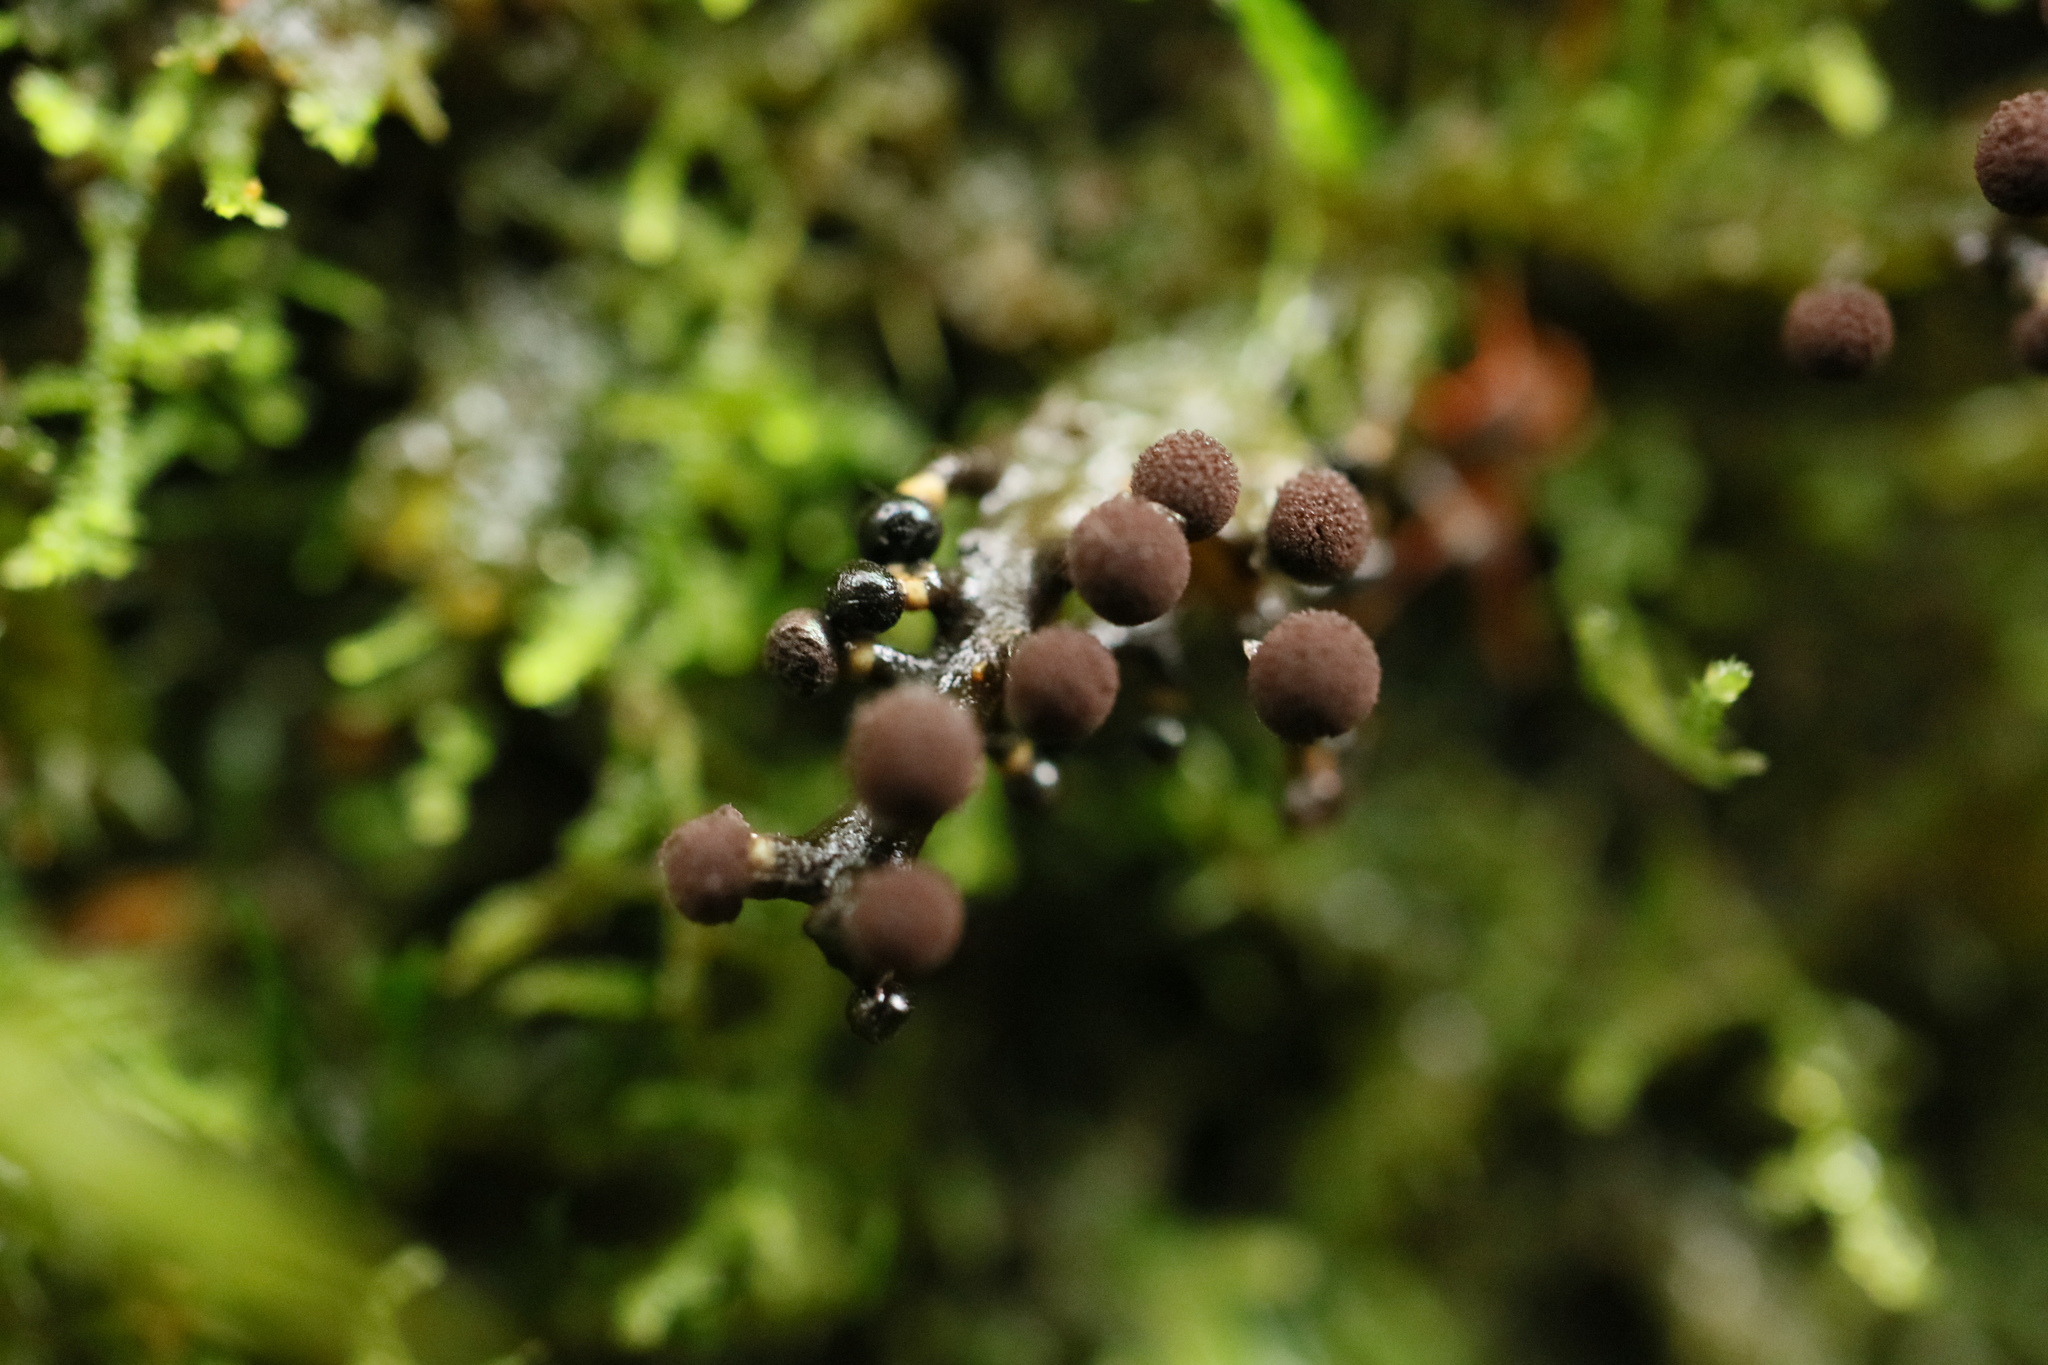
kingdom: Protozoa
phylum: Mycetozoa
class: Myxomycetes
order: Physarales
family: Elaeomyxaceae
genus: Elaeomyxa
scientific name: Elaeomyxa cerifera
